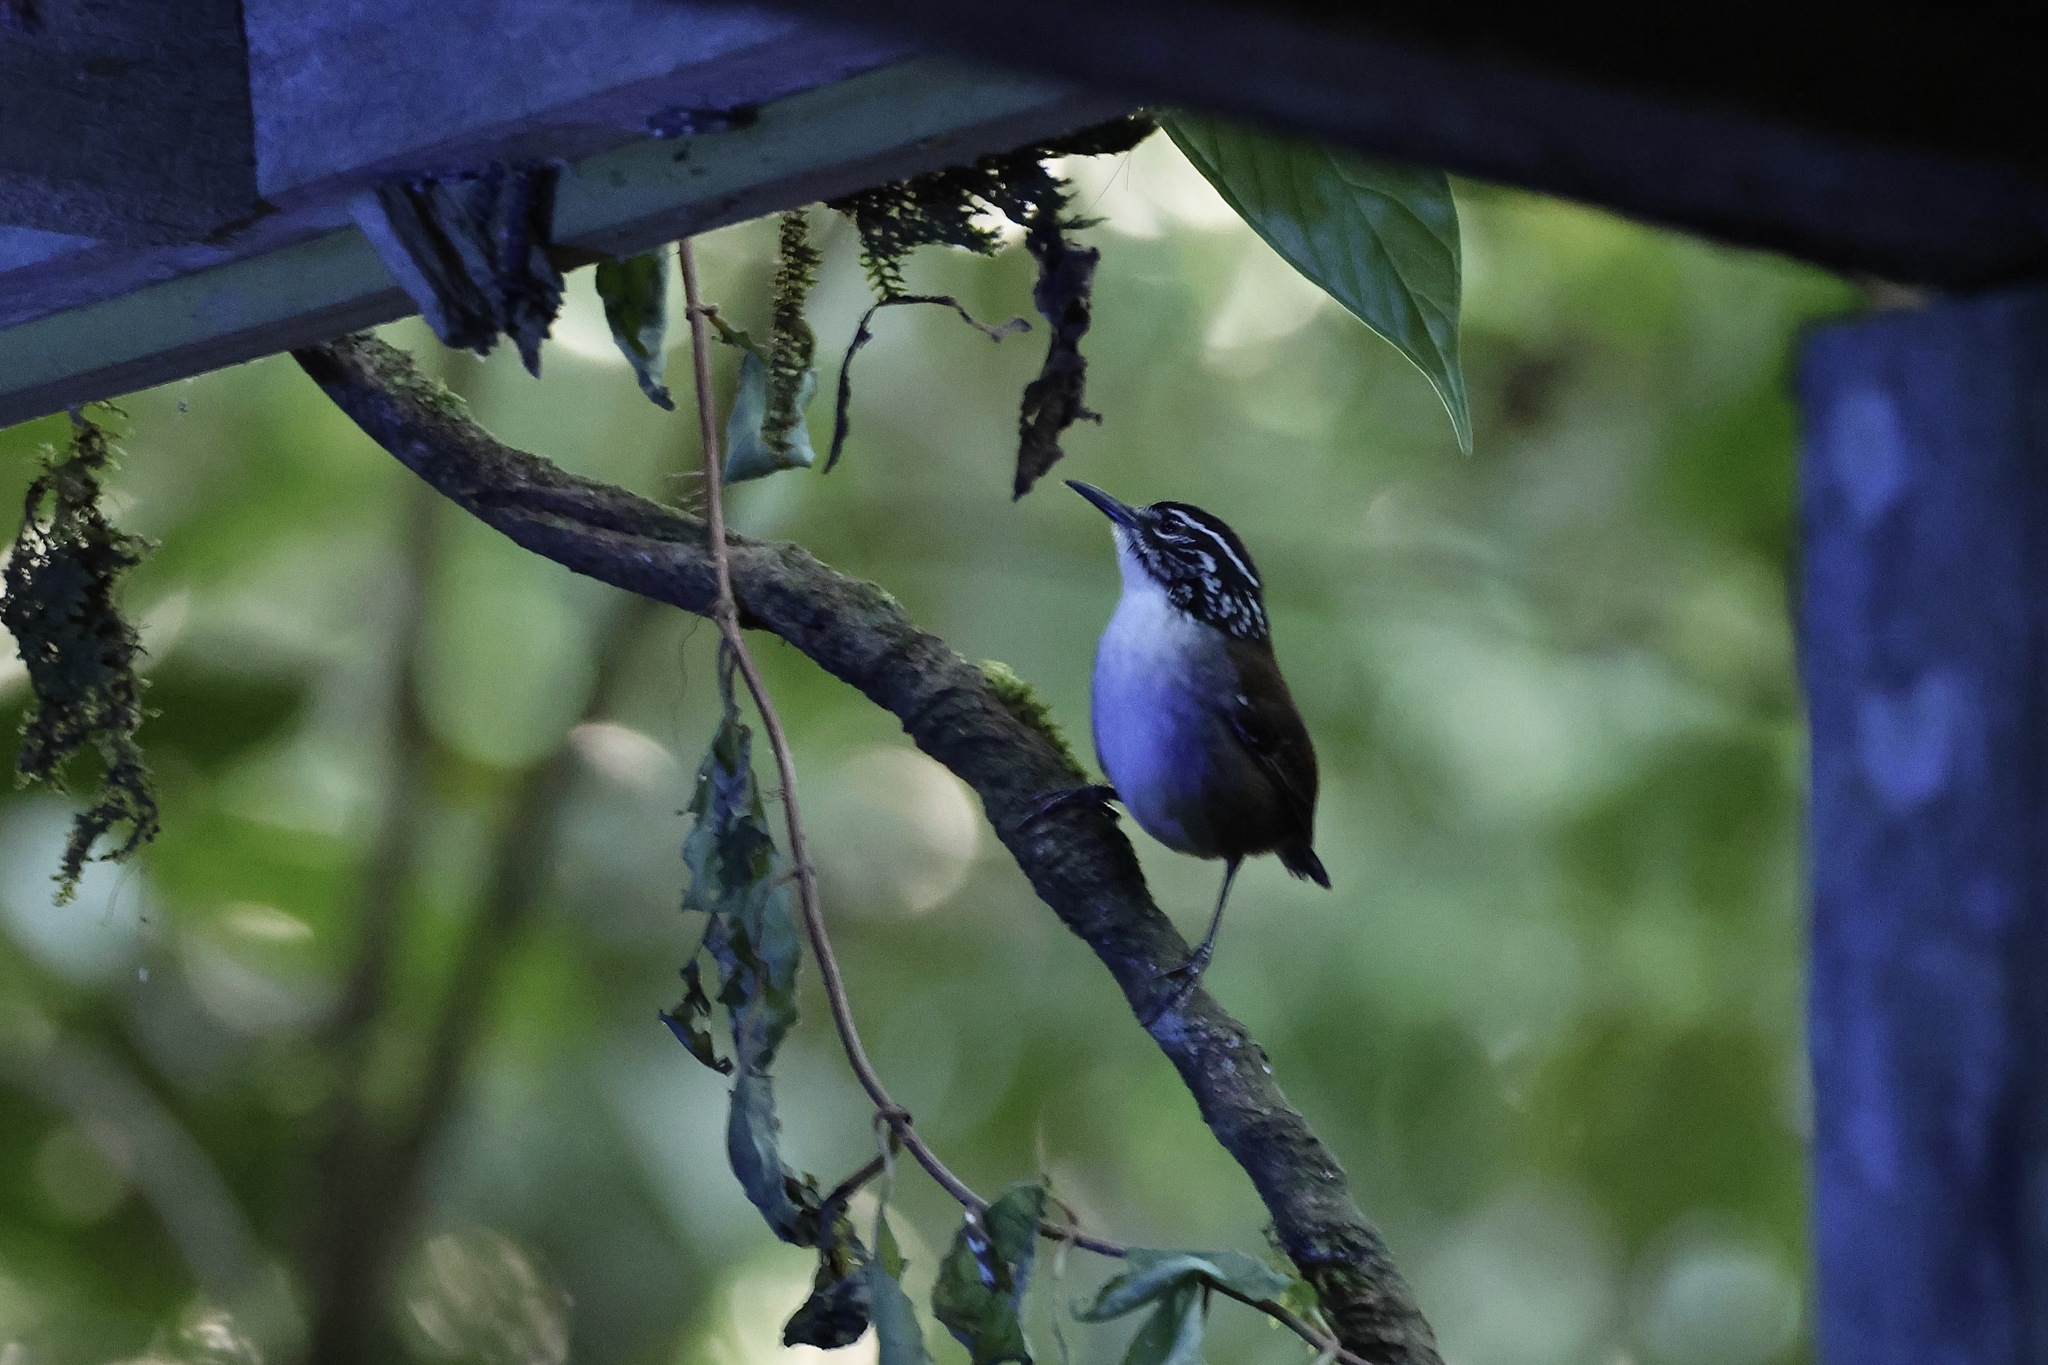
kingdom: Animalia
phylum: Chordata
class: Aves
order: Passeriformes
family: Troglodytidae
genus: Henicorhina
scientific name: Henicorhina leucosticta
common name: White-breasted wood-wren
